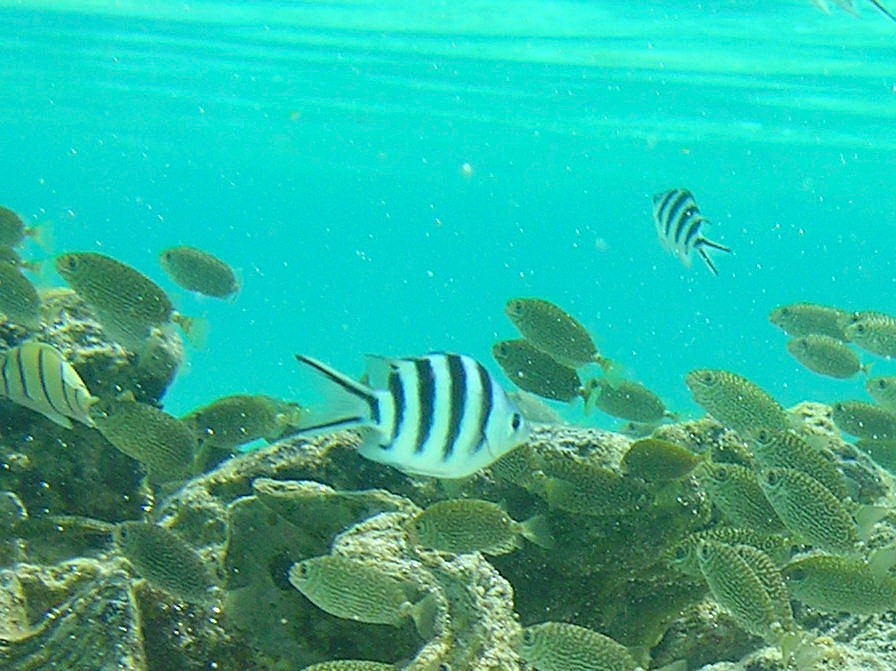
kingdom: Animalia
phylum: Chordata
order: Perciformes
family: Pomacentridae
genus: Abudefduf
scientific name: Abudefduf sexfasciatus
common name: Scissortail sergeant
